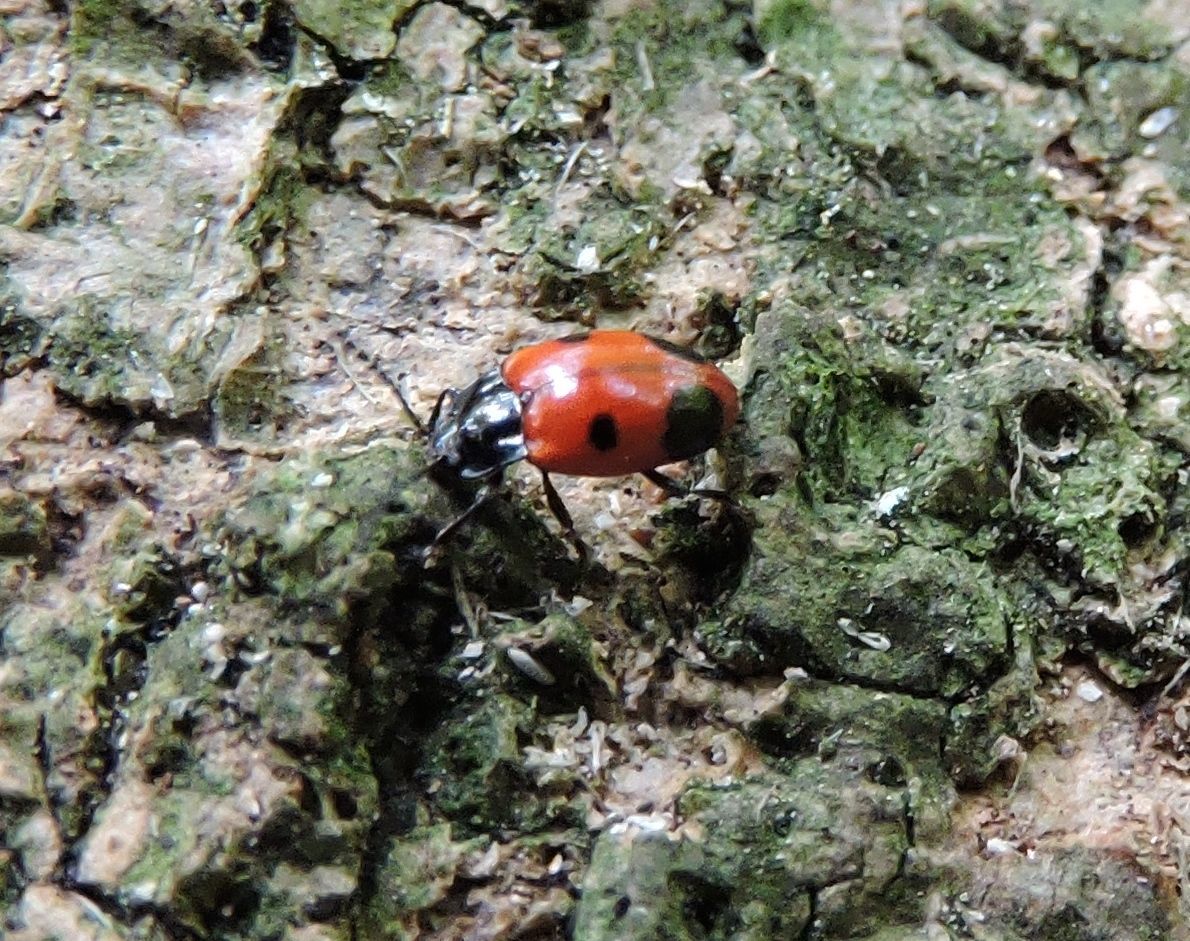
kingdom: Animalia
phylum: Arthropoda
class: Insecta
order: Coleoptera
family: Endomychidae
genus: Endomychus
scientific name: Endomychus biguttatus
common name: Handsome fungus beetle
